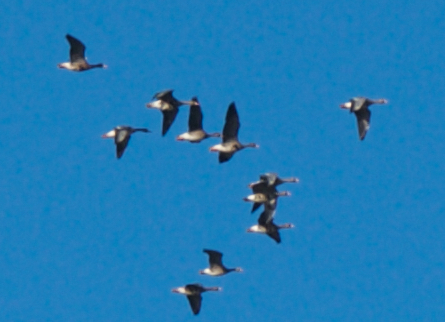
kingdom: Animalia
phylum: Chordata
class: Aves
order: Anseriformes
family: Anatidae
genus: Anser
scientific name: Anser albifrons
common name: Greater white-fronted goose
